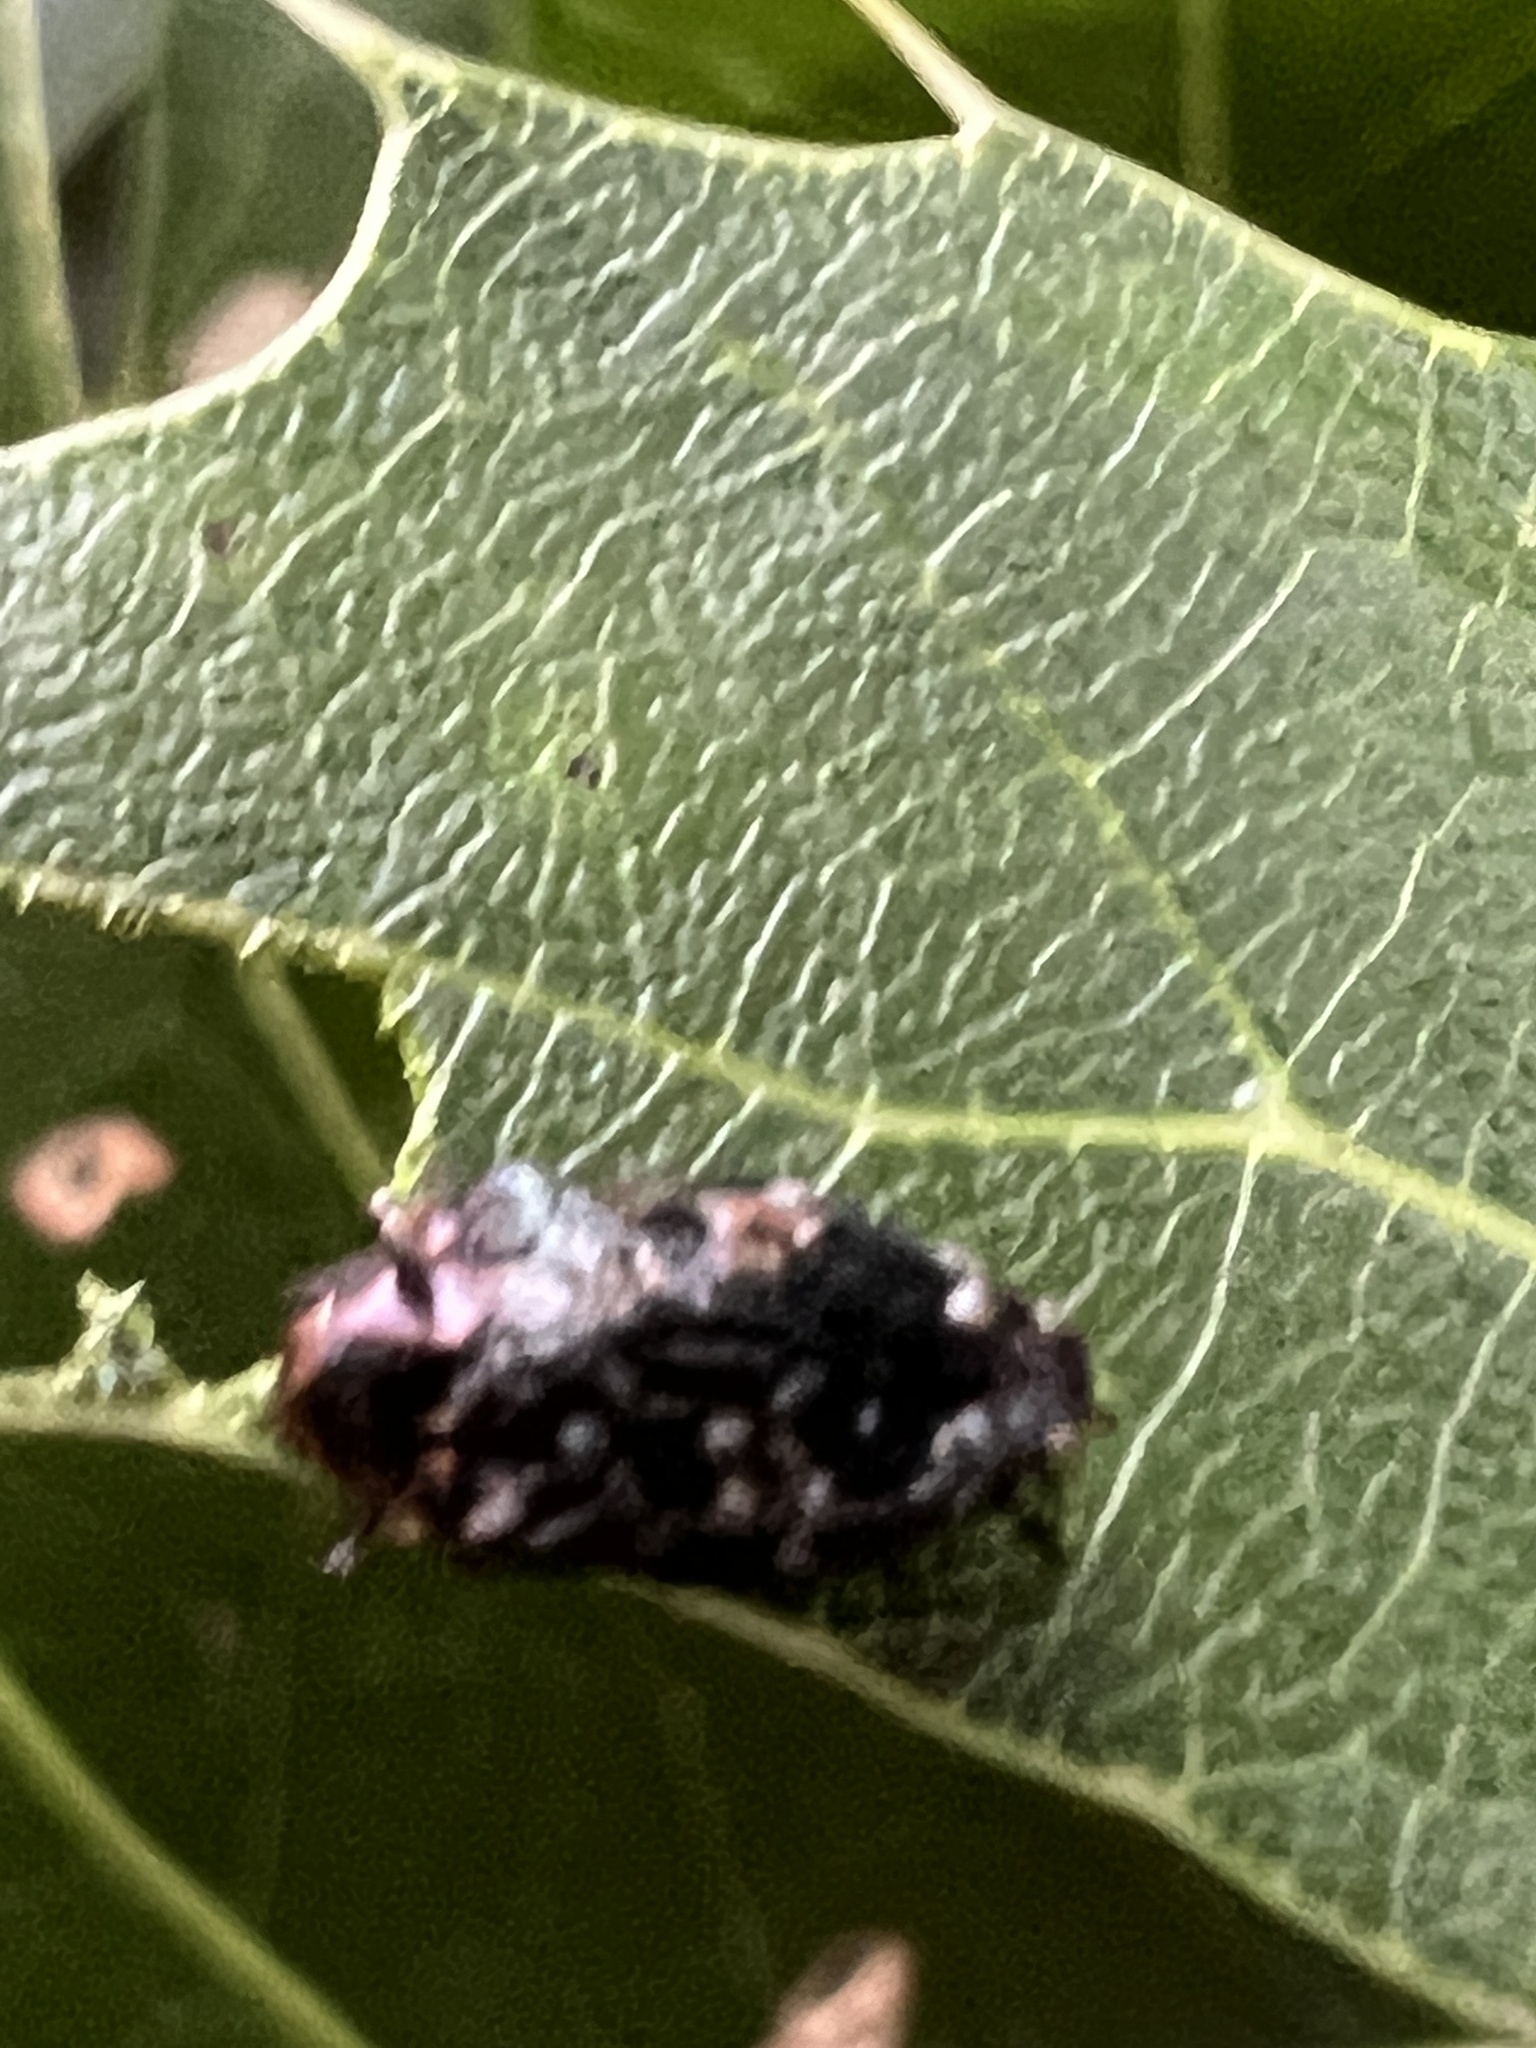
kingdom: Animalia
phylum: Arthropoda
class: Insecta
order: Coleoptera
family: Buprestidae
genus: Brachys
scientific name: Brachys ovatus
